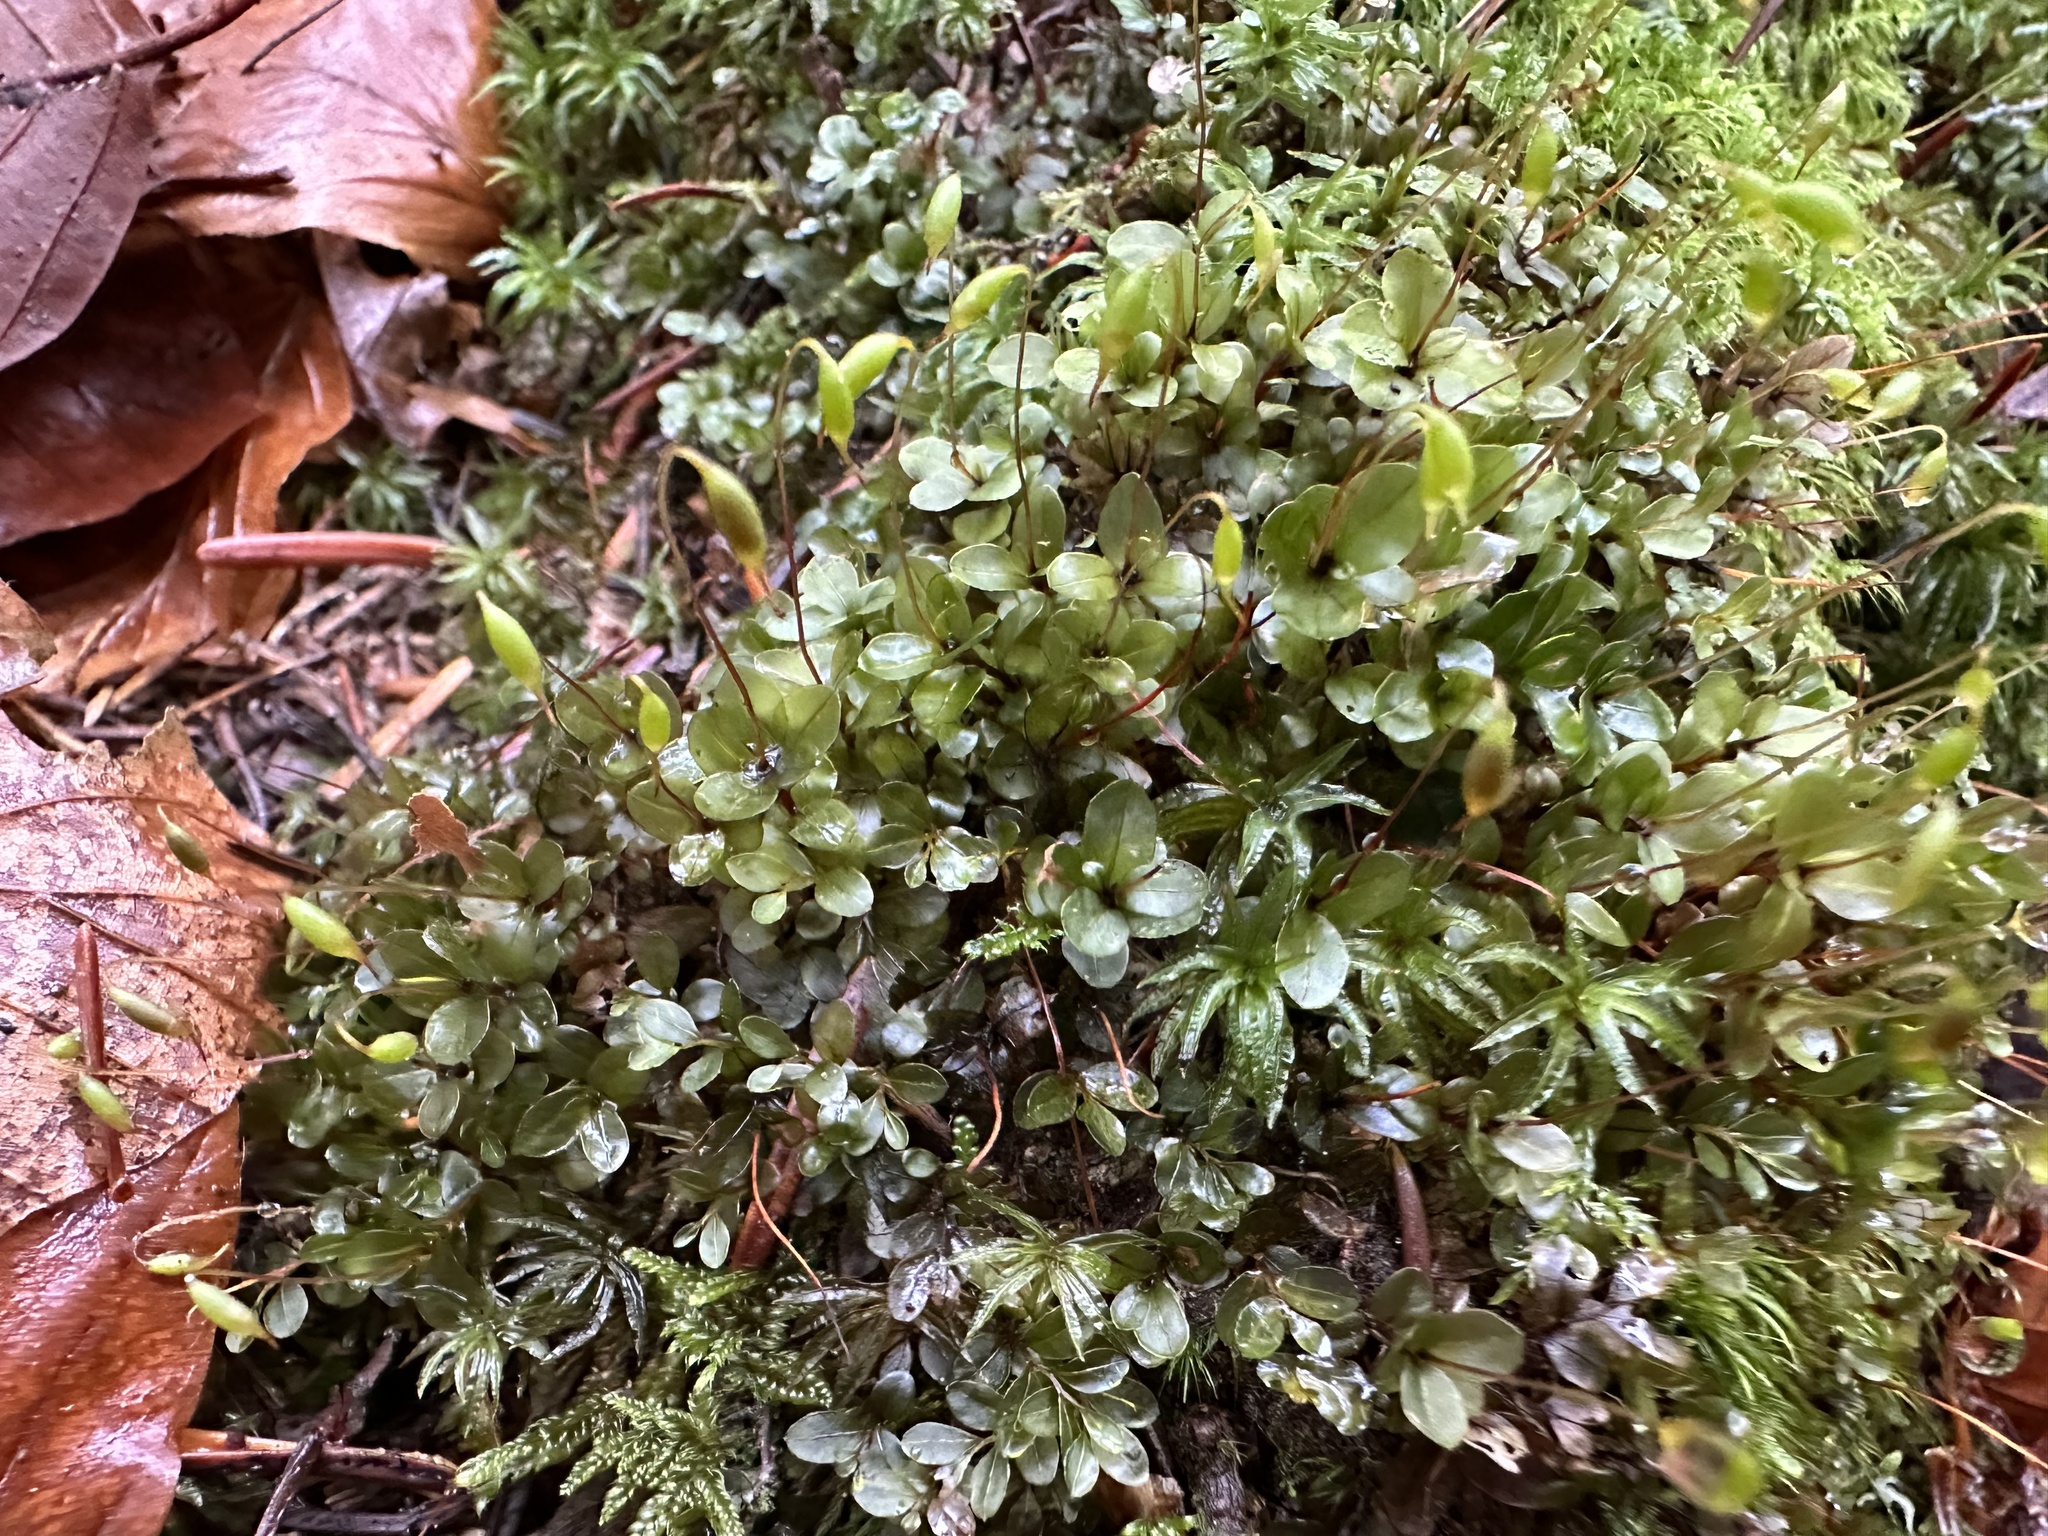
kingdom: Plantae
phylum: Bryophyta
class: Bryopsida
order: Bryales
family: Mniaceae
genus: Rhizomnium
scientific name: Rhizomnium punctatum
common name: Dotted leafy moss
